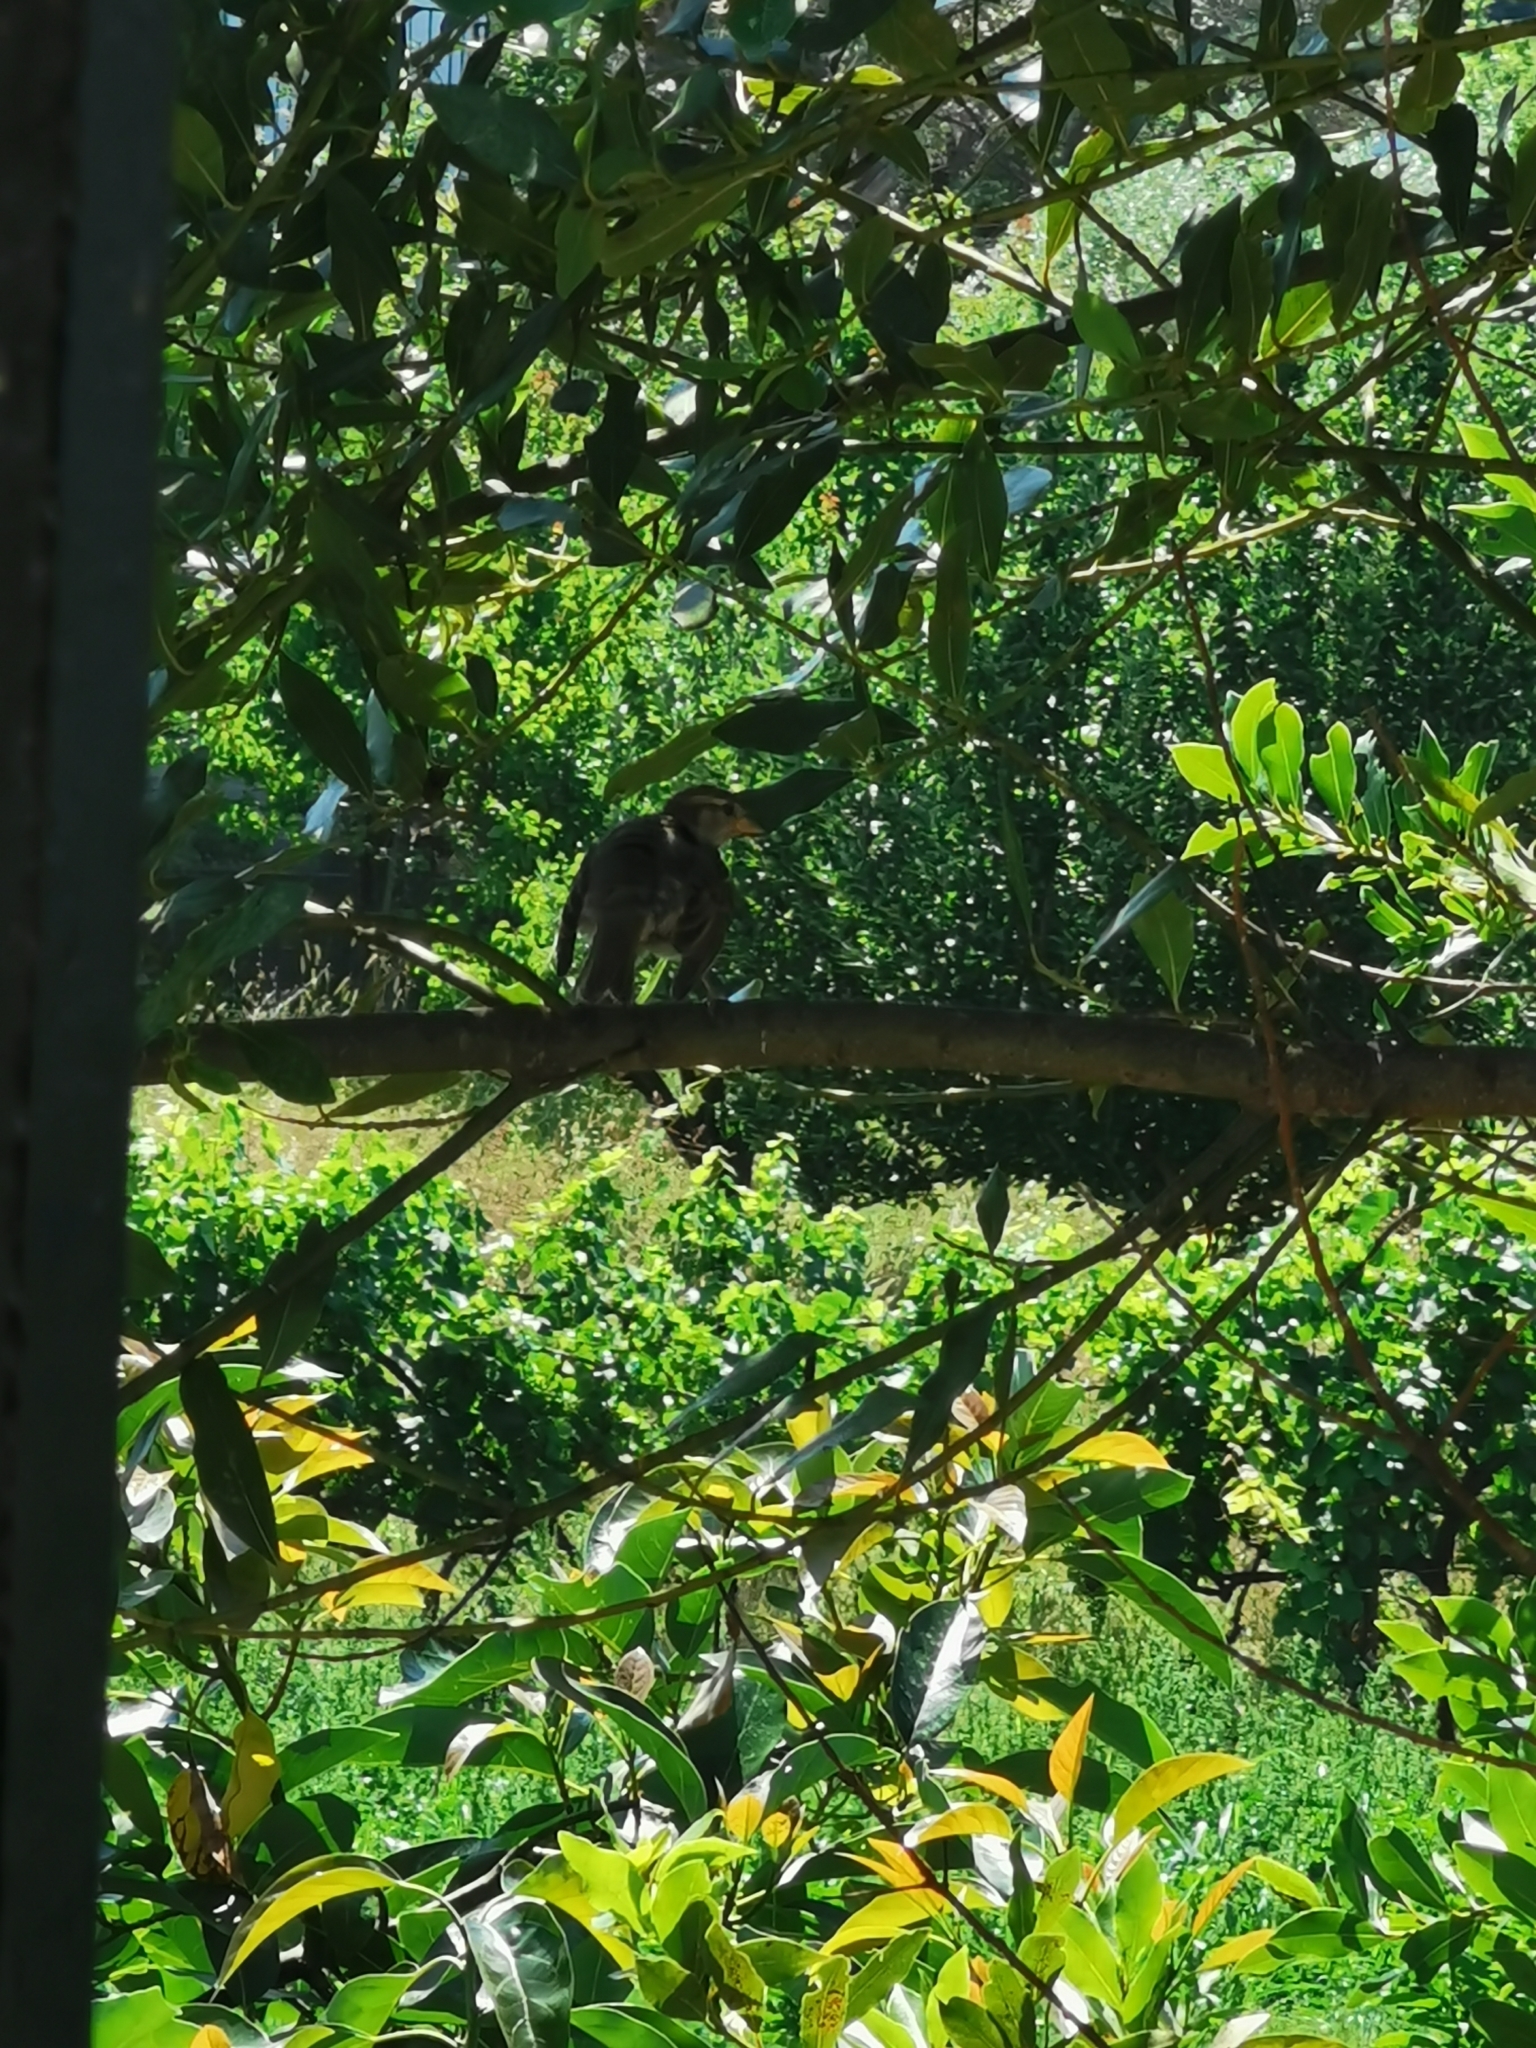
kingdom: Animalia
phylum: Chordata
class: Aves
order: Passeriformes
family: Passeridae
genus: Passer
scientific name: Passer domesticus
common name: House sparrow
